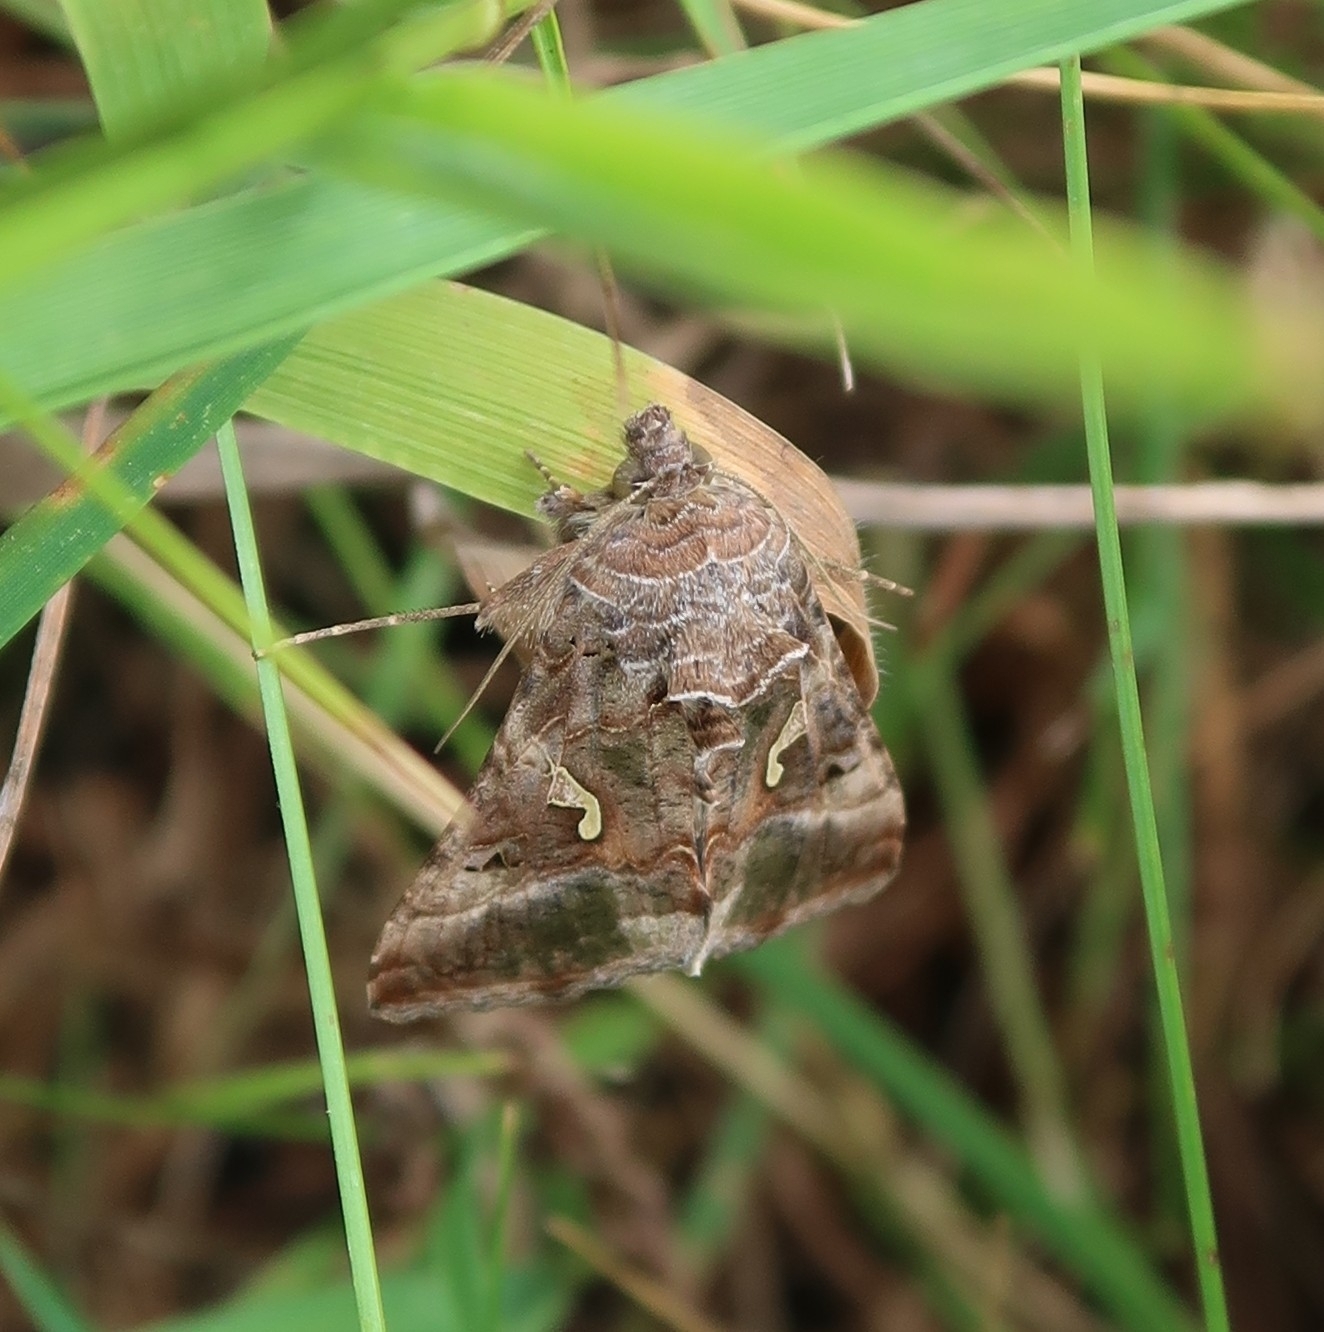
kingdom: Animalia
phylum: Arthropoda
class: Insecta
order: Lepidoptera
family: Noctuidae
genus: Autographa
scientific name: Autographa gamma
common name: Silver y
